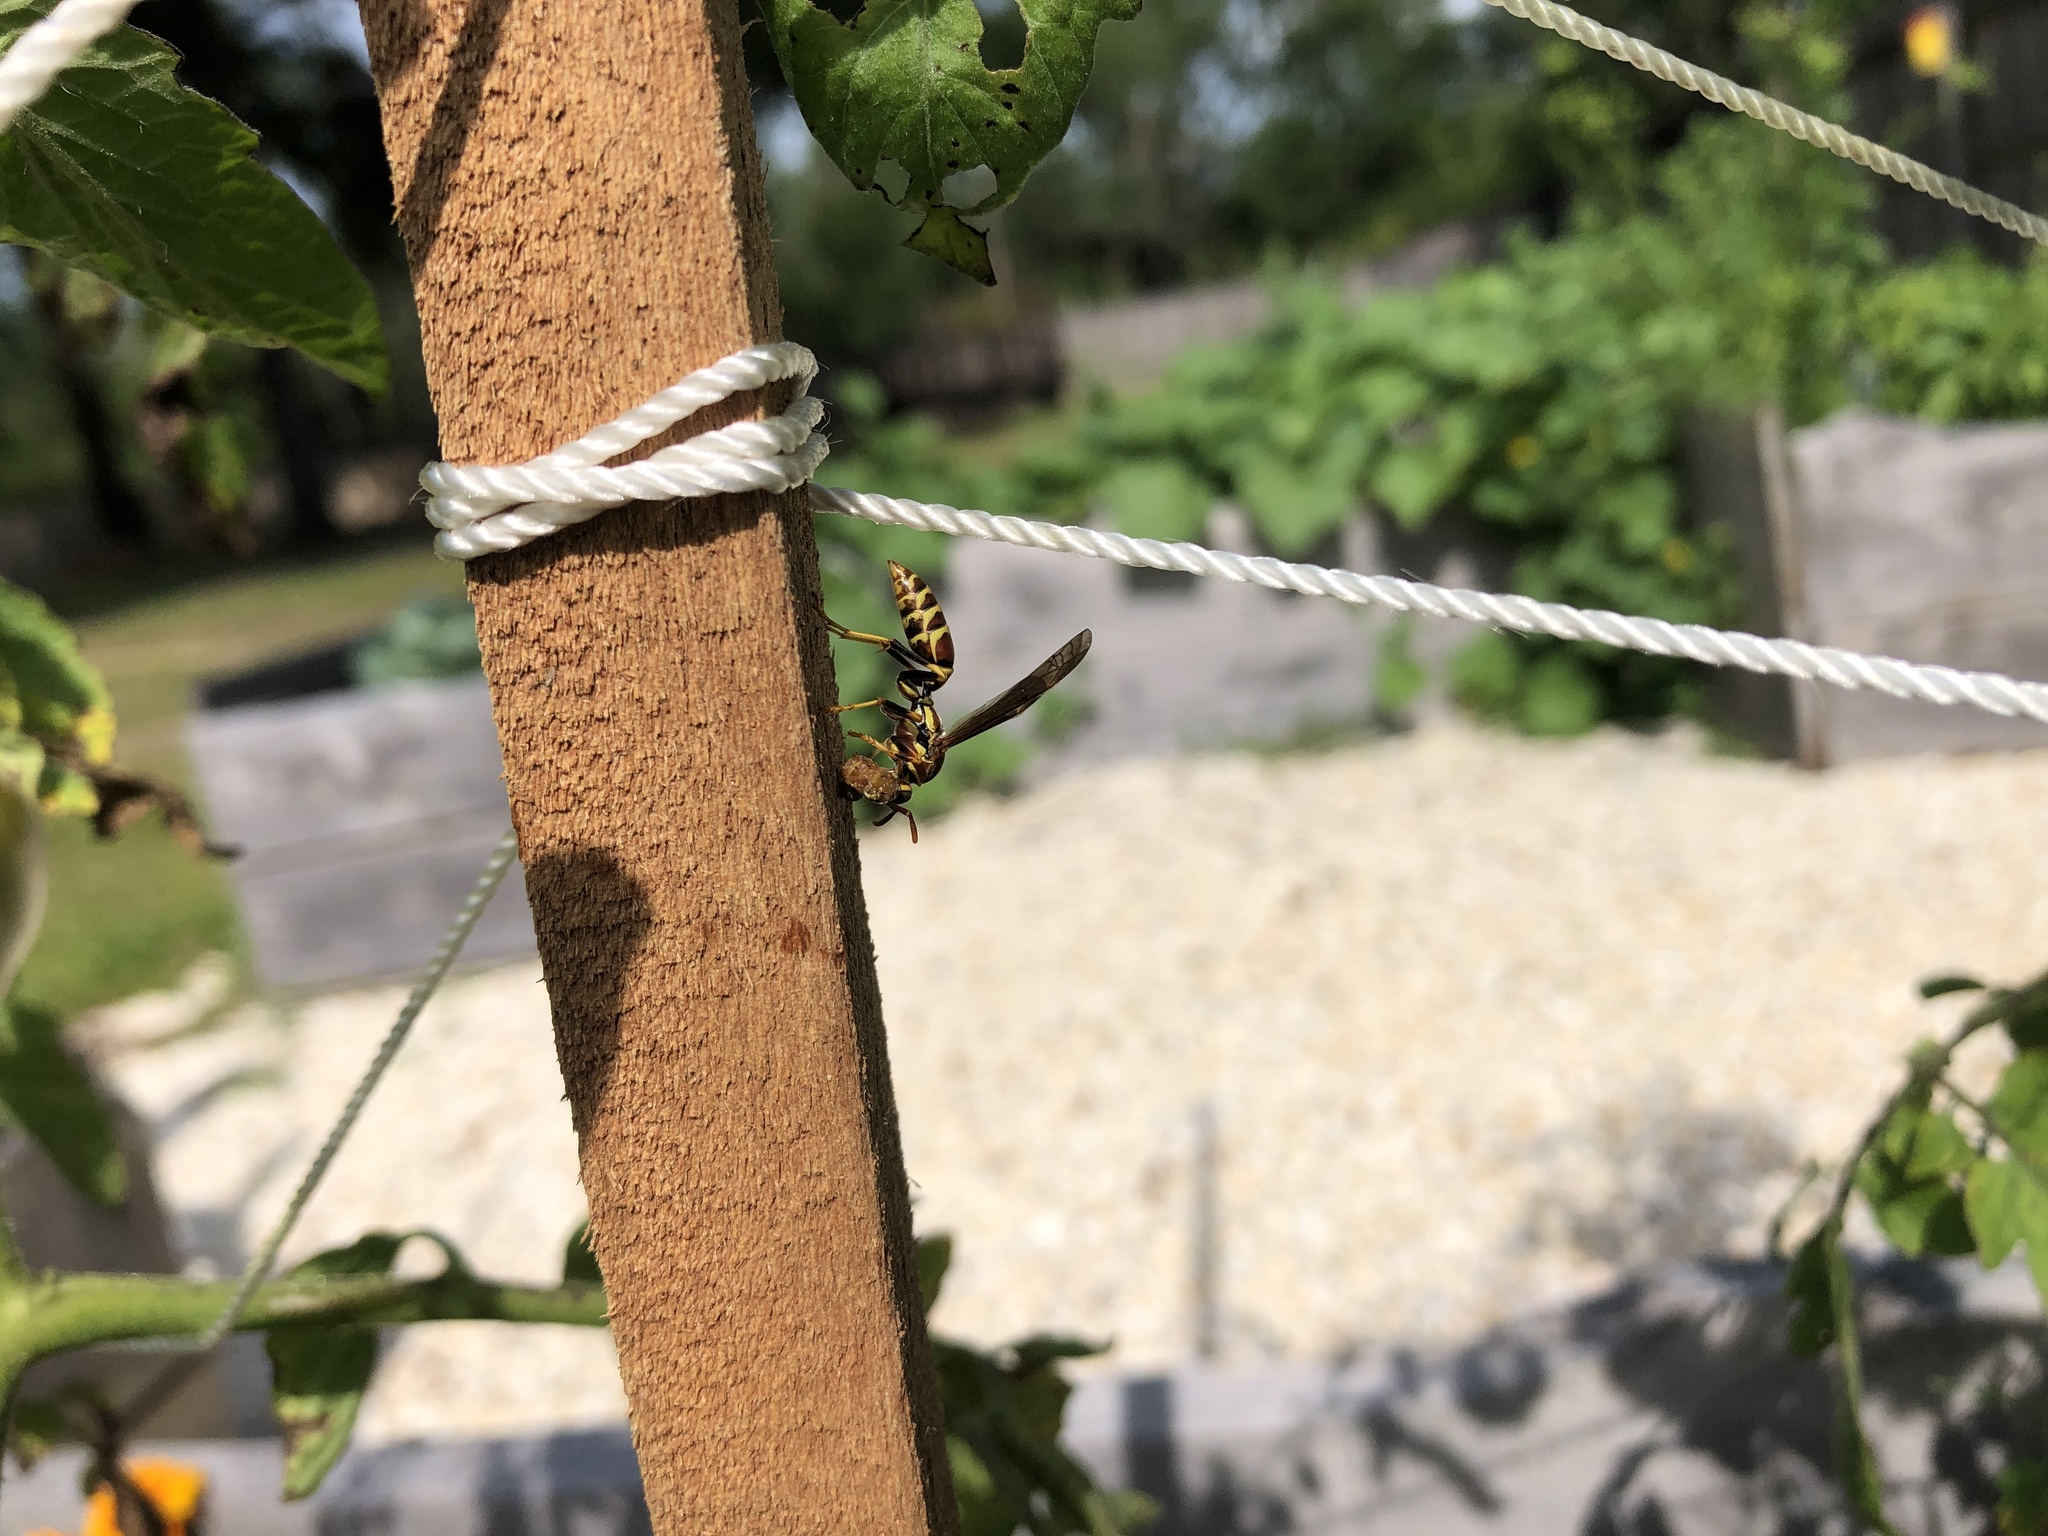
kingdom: Animalia
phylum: Arthropoda
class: Insecta
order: Hymenoptera
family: Eumenidae
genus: Polistes
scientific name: Polistes exclamans
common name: Paper wasp
